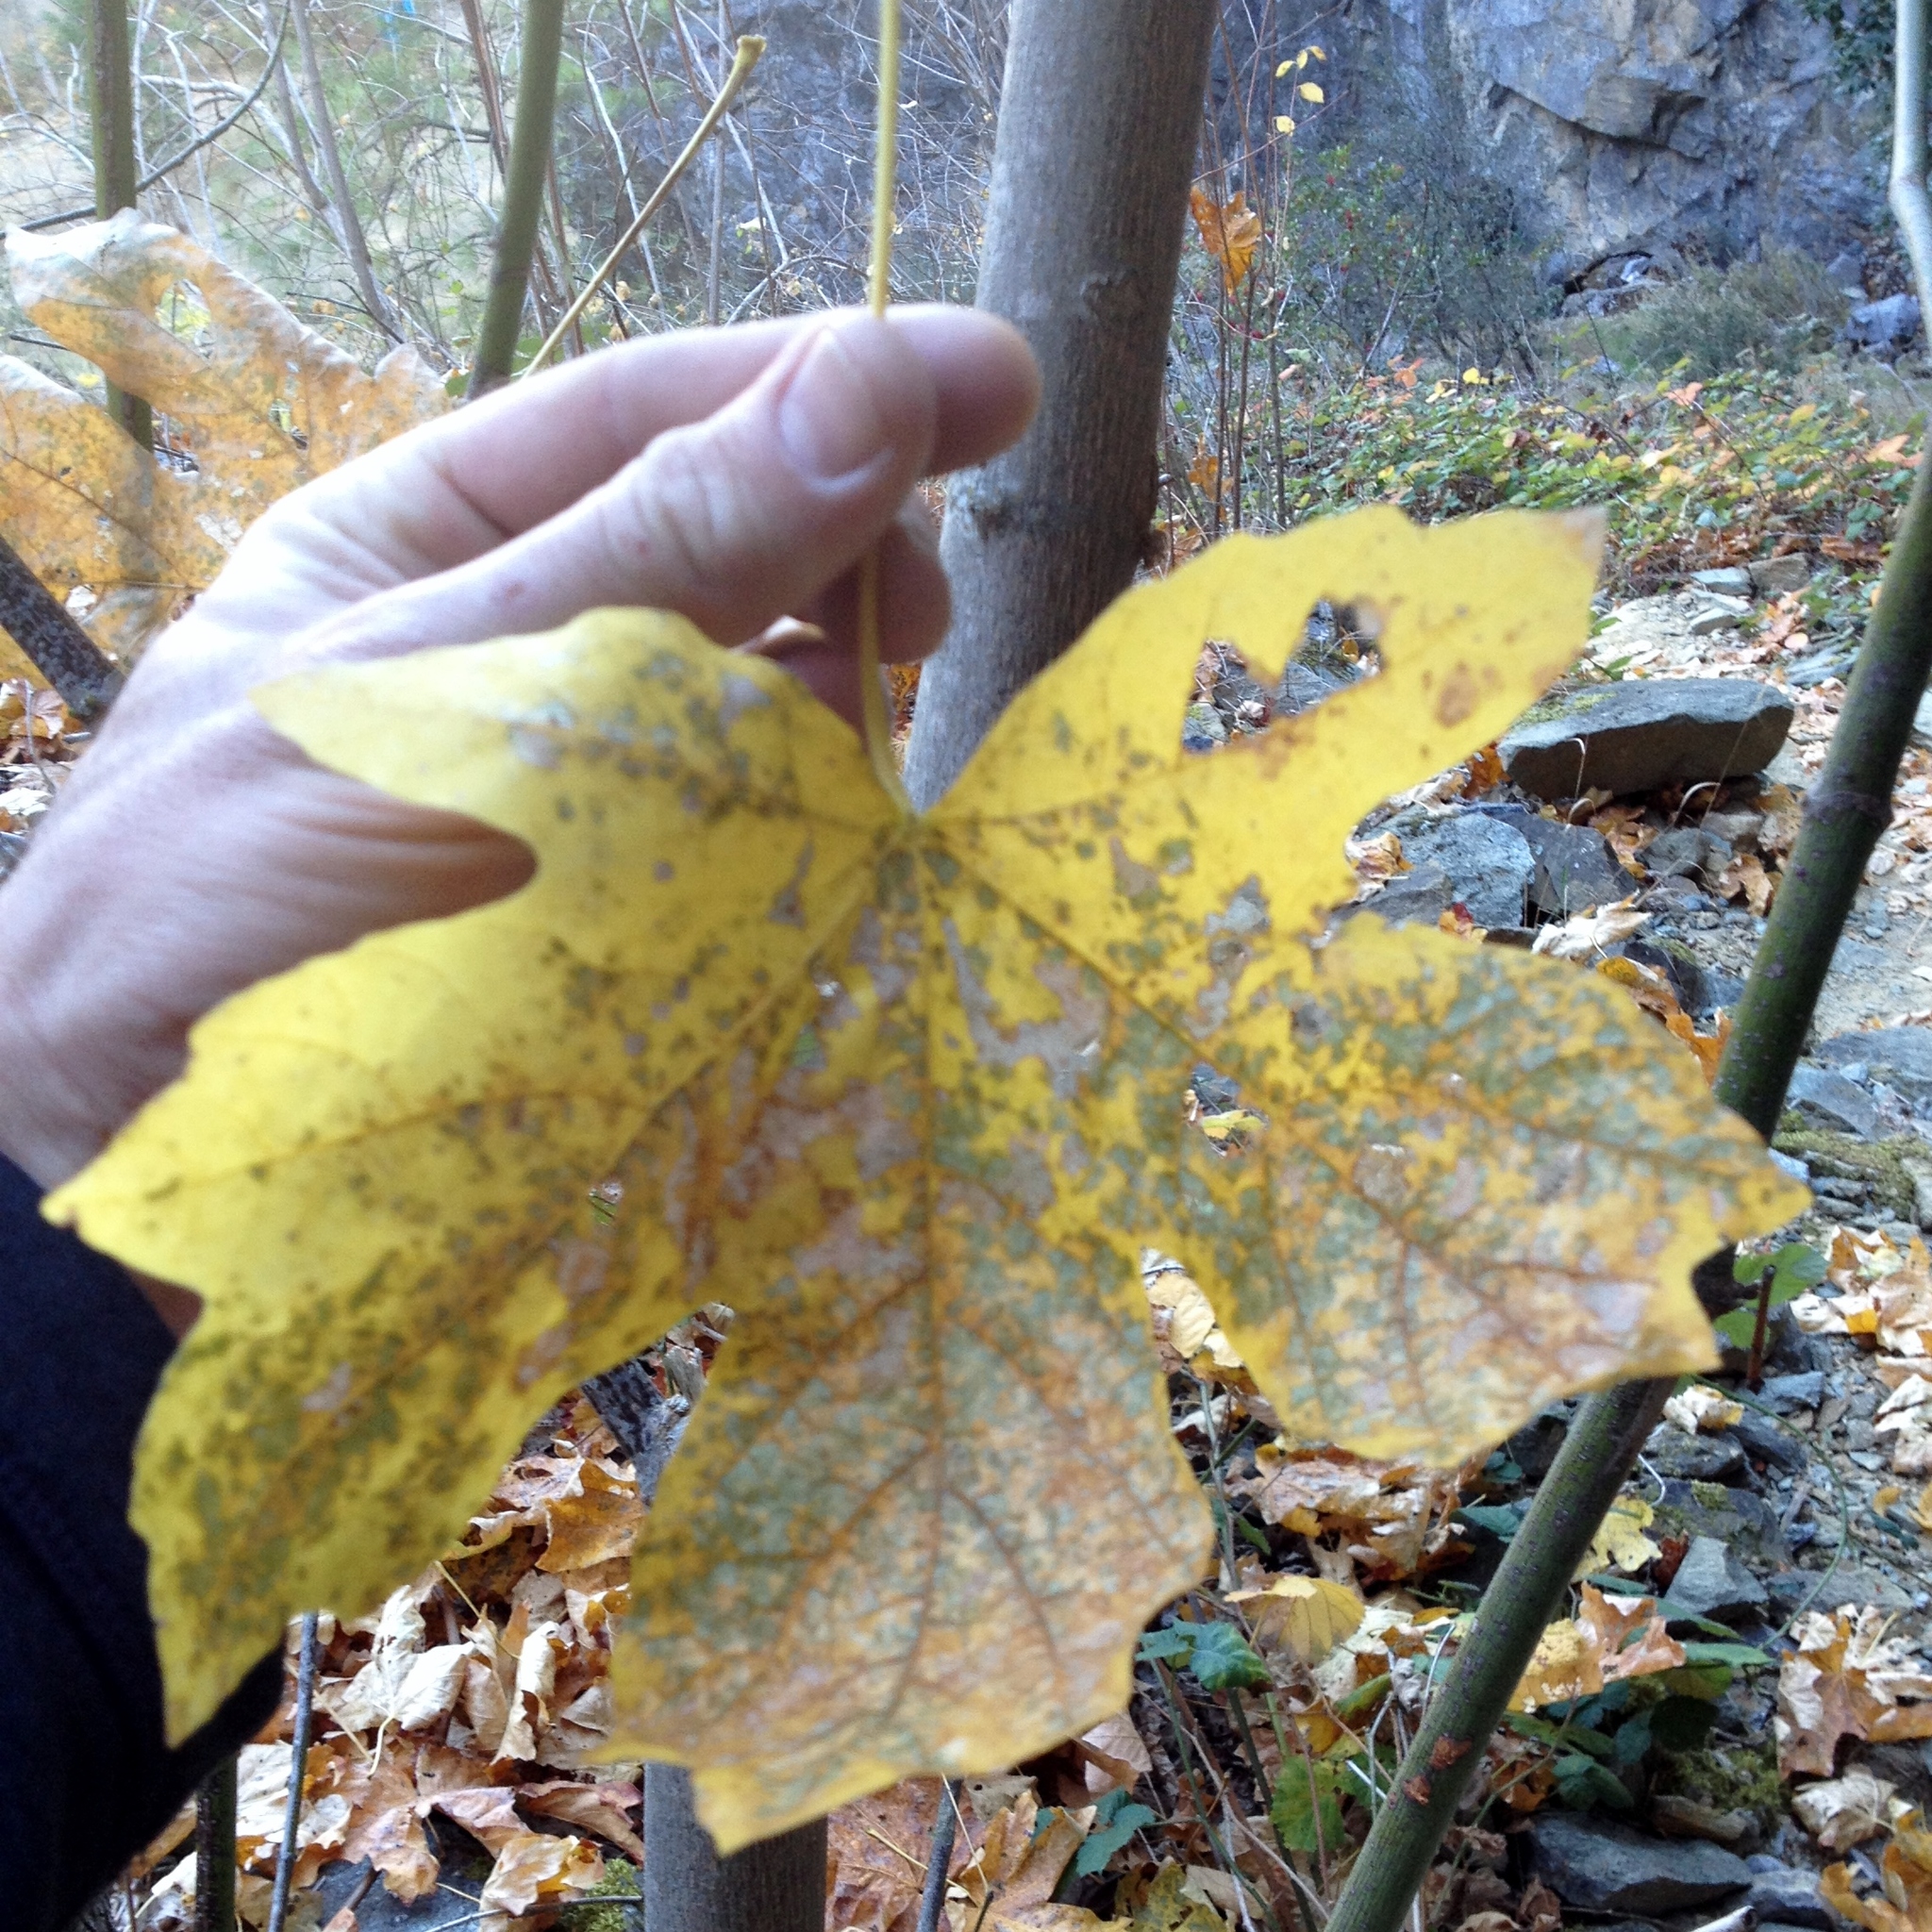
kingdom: Plantae
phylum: Tracheophyta
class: Magnoliopsida
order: Sapindales
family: Sapindaceae
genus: Acer
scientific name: Acer macrophyllum
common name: Oregon maple
